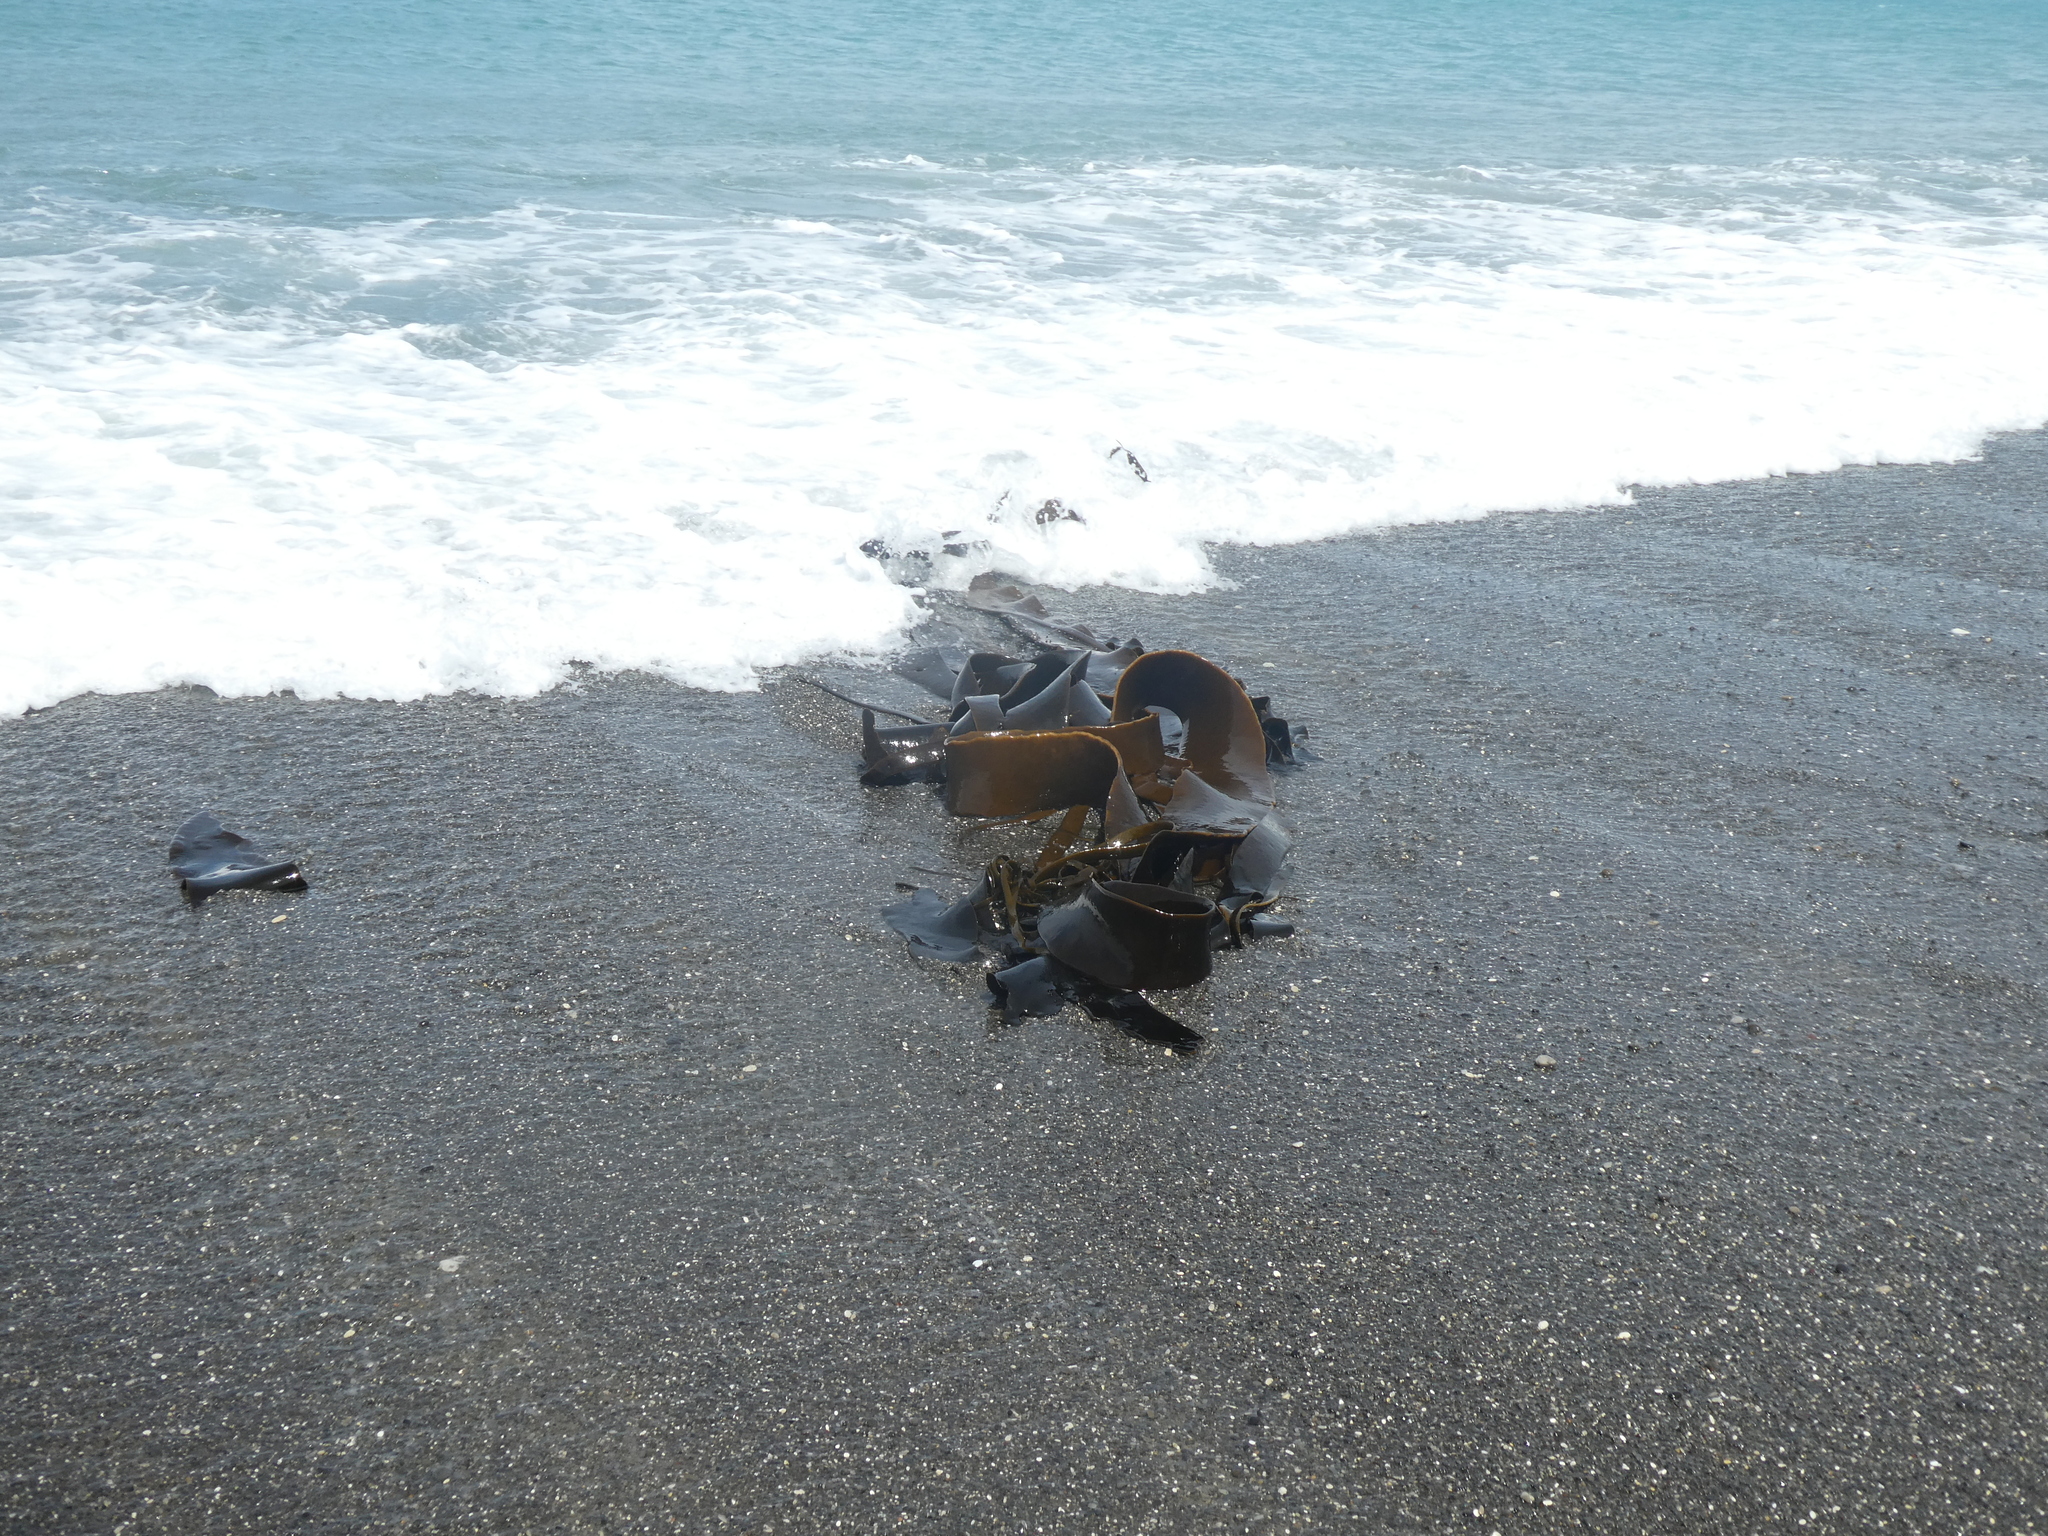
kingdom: Chromista
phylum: Ochrophyta
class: Phaeophyceae
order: Fucales
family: Durvillaeaceae
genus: Durvillaea
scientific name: Durvillaea antarctica
